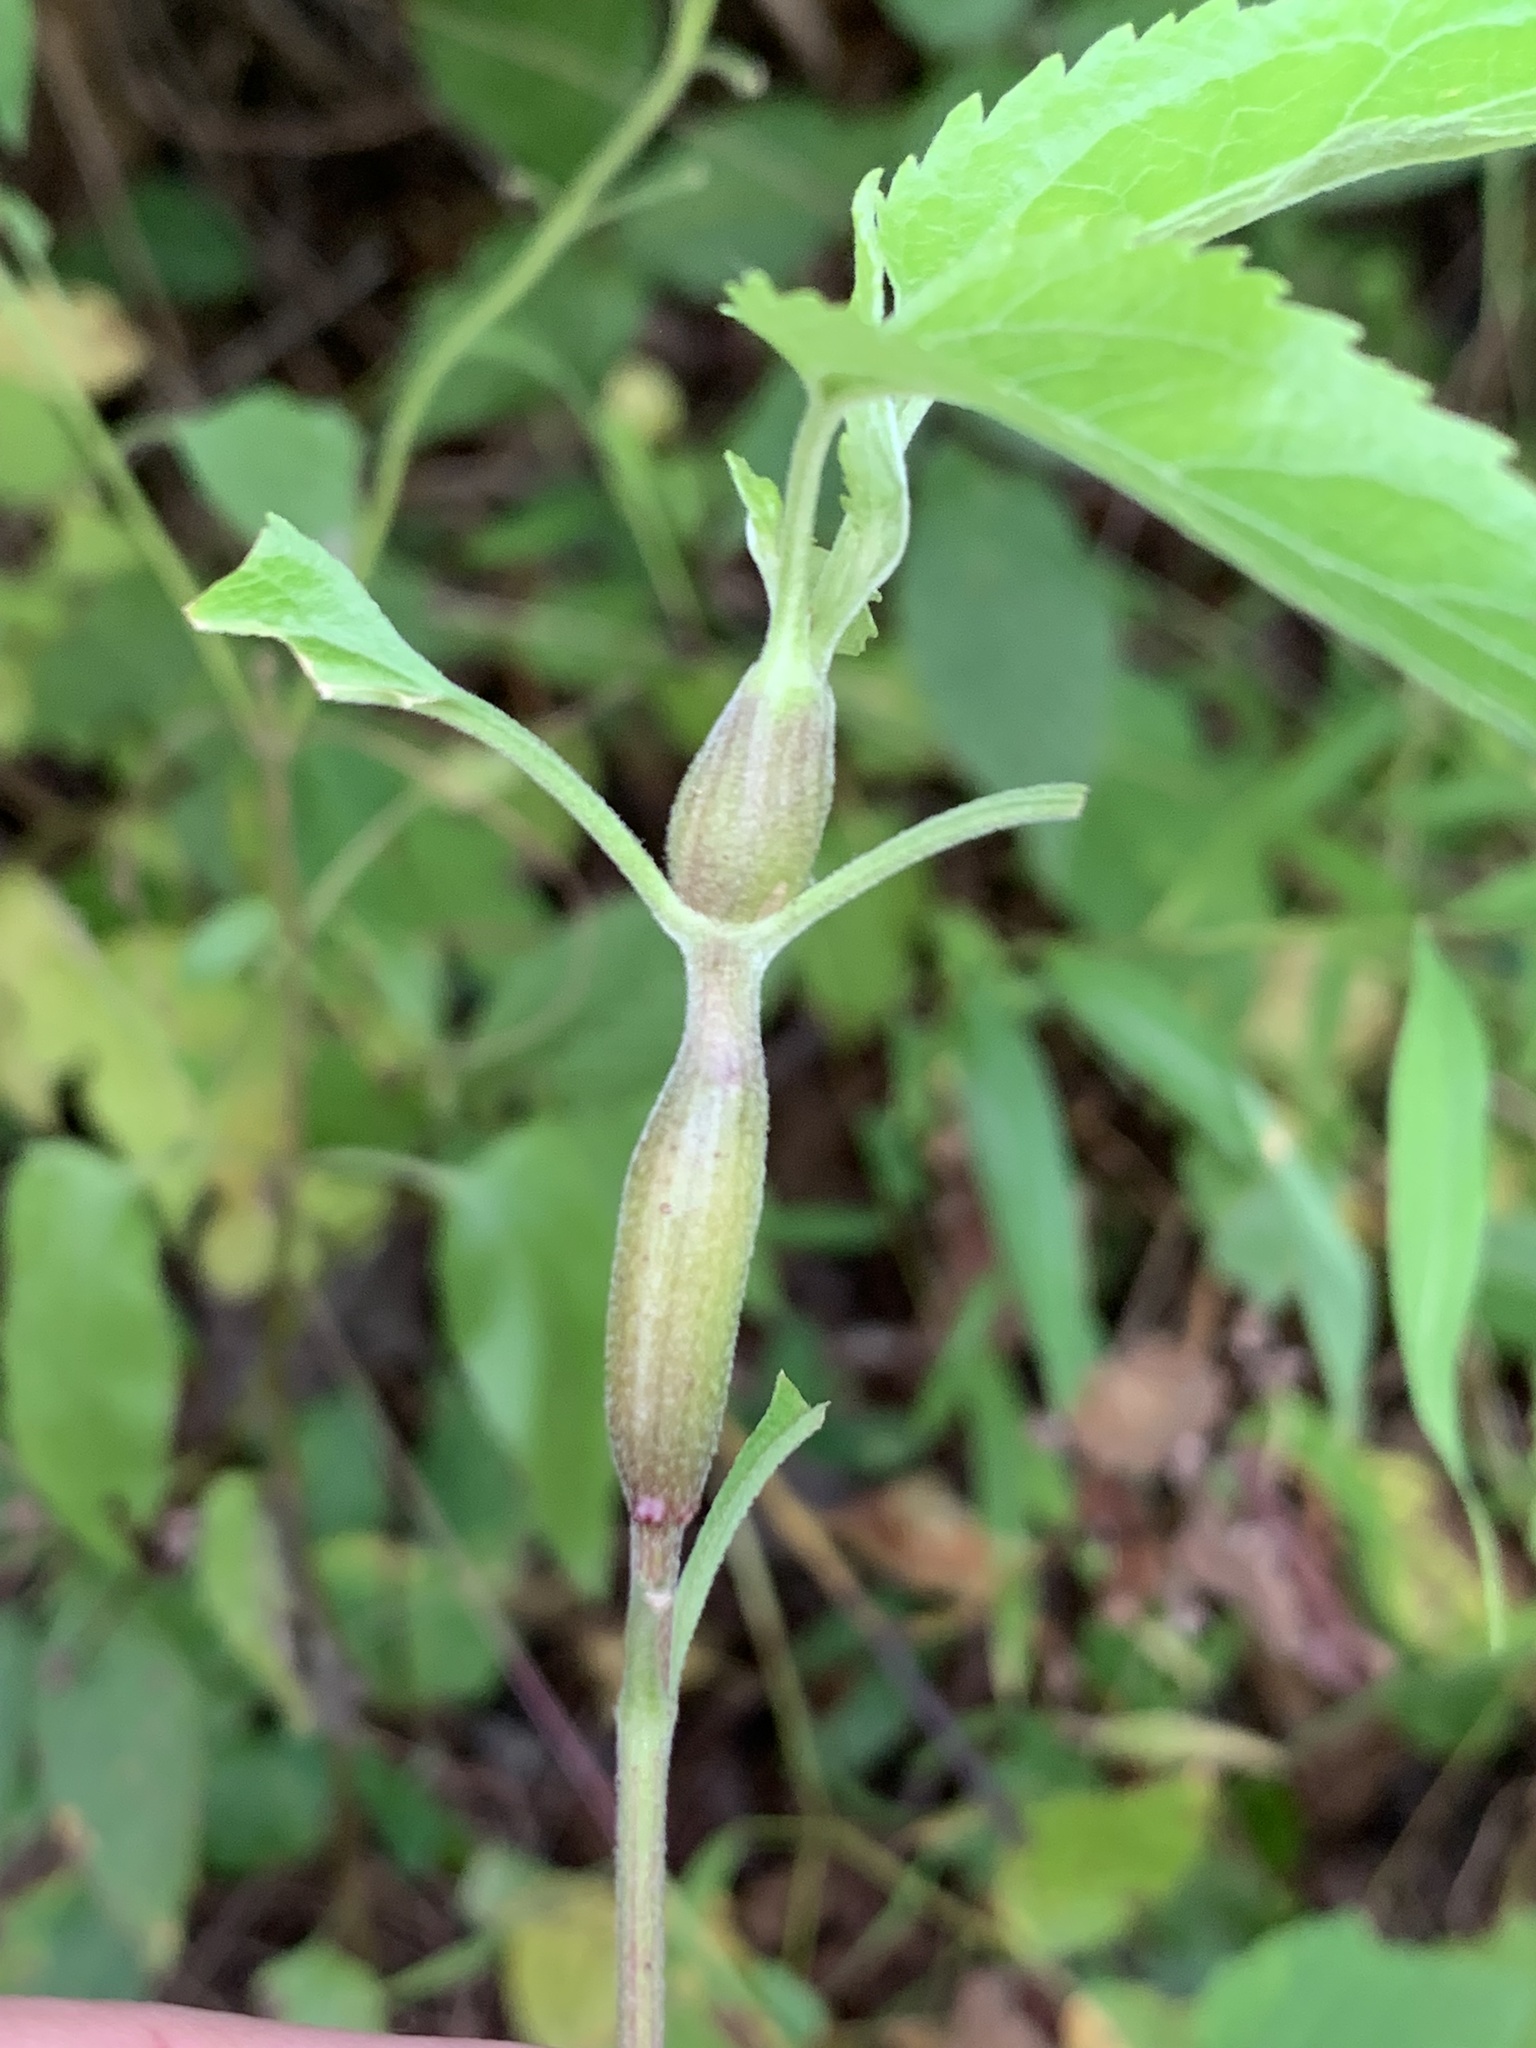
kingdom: Animalia
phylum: Arthropoda
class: Insecta
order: Diptera
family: Cecidomyiidae
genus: Neolasioptera
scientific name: Neolasioptera eupatorii
